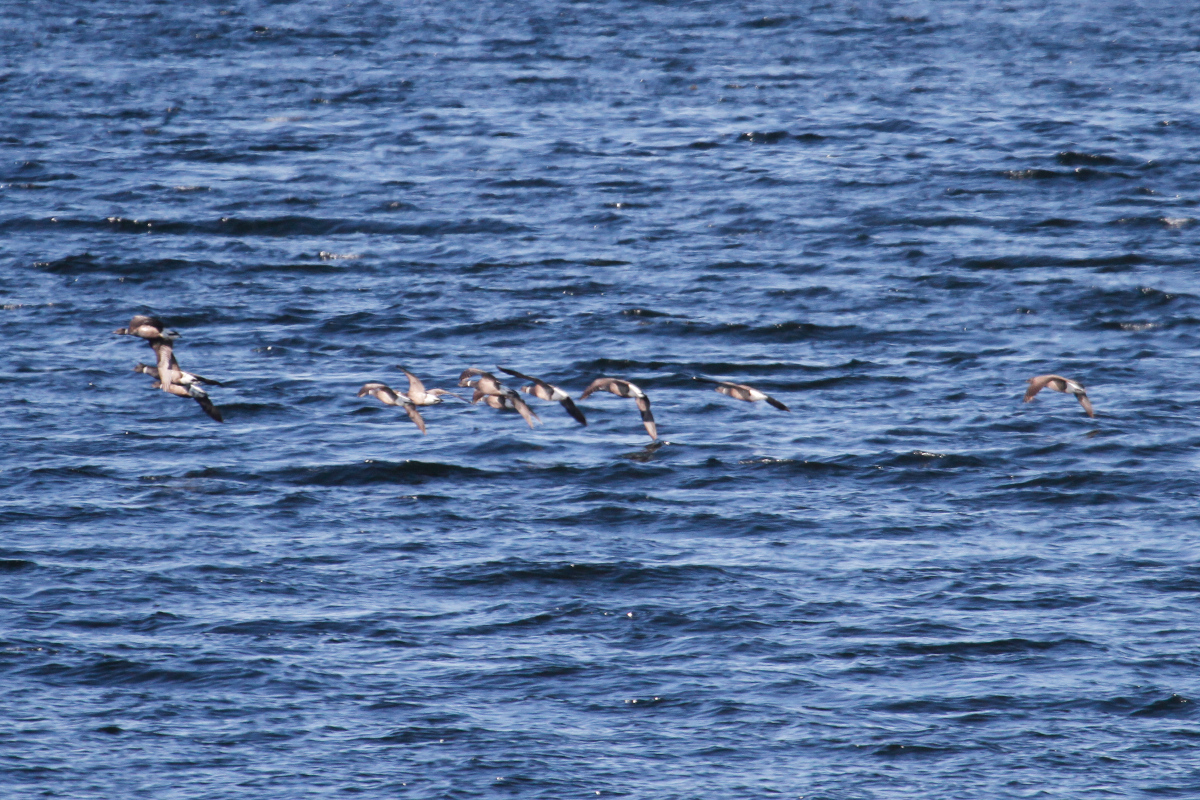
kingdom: Animalia
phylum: Chordata
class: Aves
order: Anseriformes
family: Anatidae
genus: Branta
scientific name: Branta bernicla
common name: Brant goose
